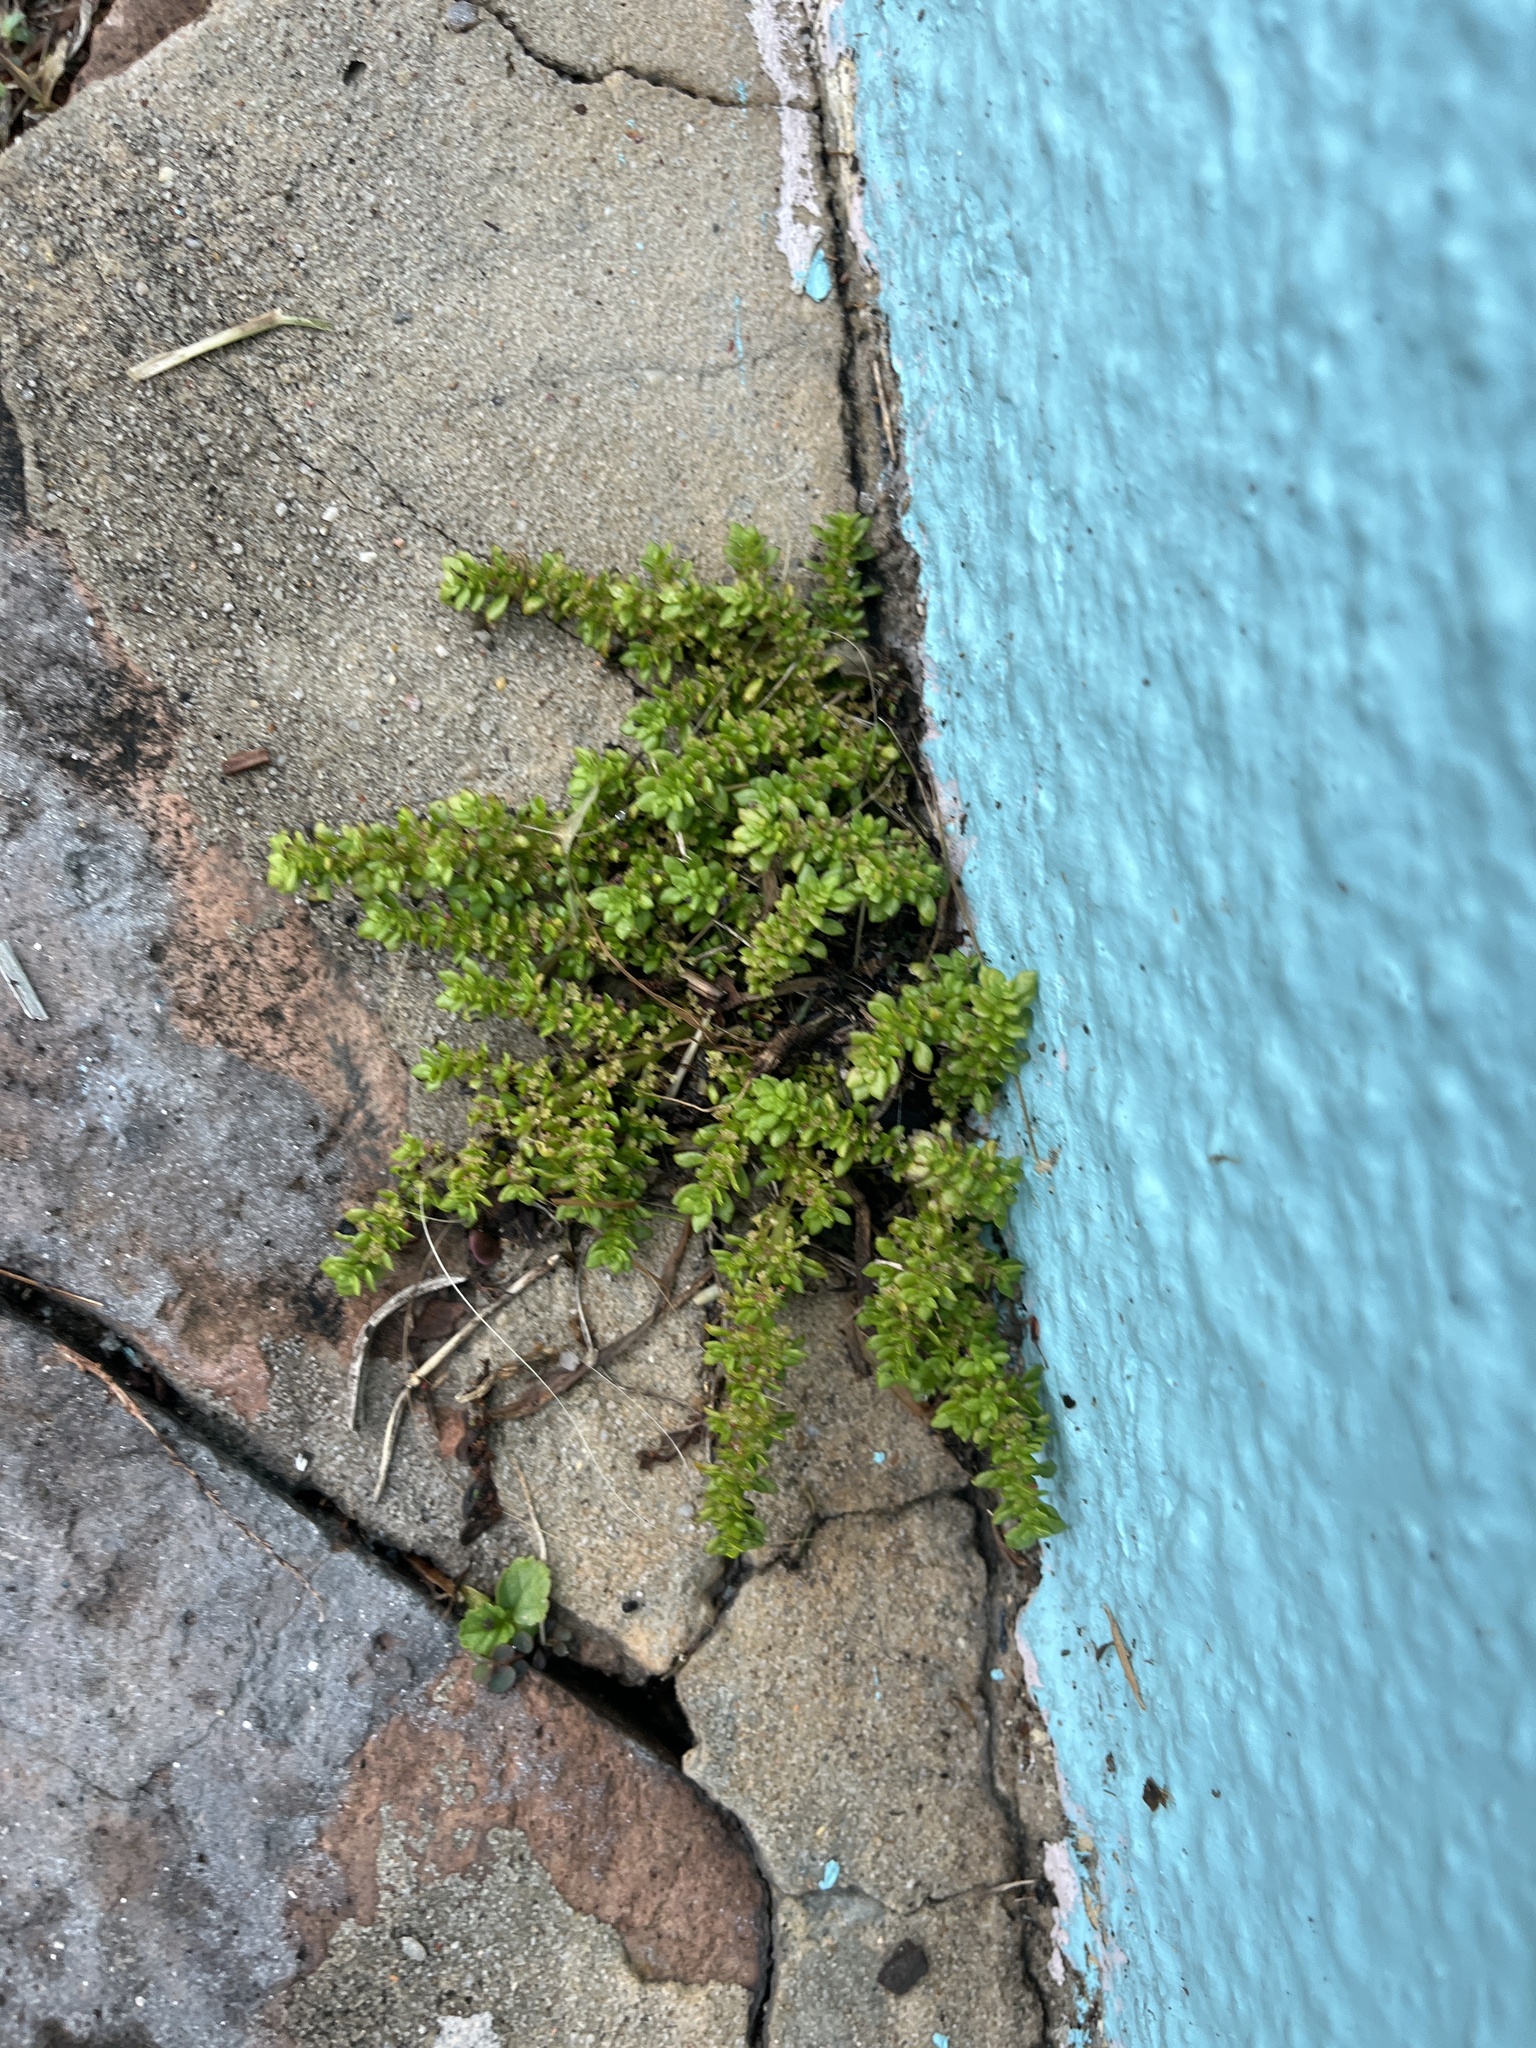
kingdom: Plantae
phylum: Tracheophyta
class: Magnoliopsida
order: Rosales
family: Urticaceae
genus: Pilea
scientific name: Pilea microphylla
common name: Artillery-plant
